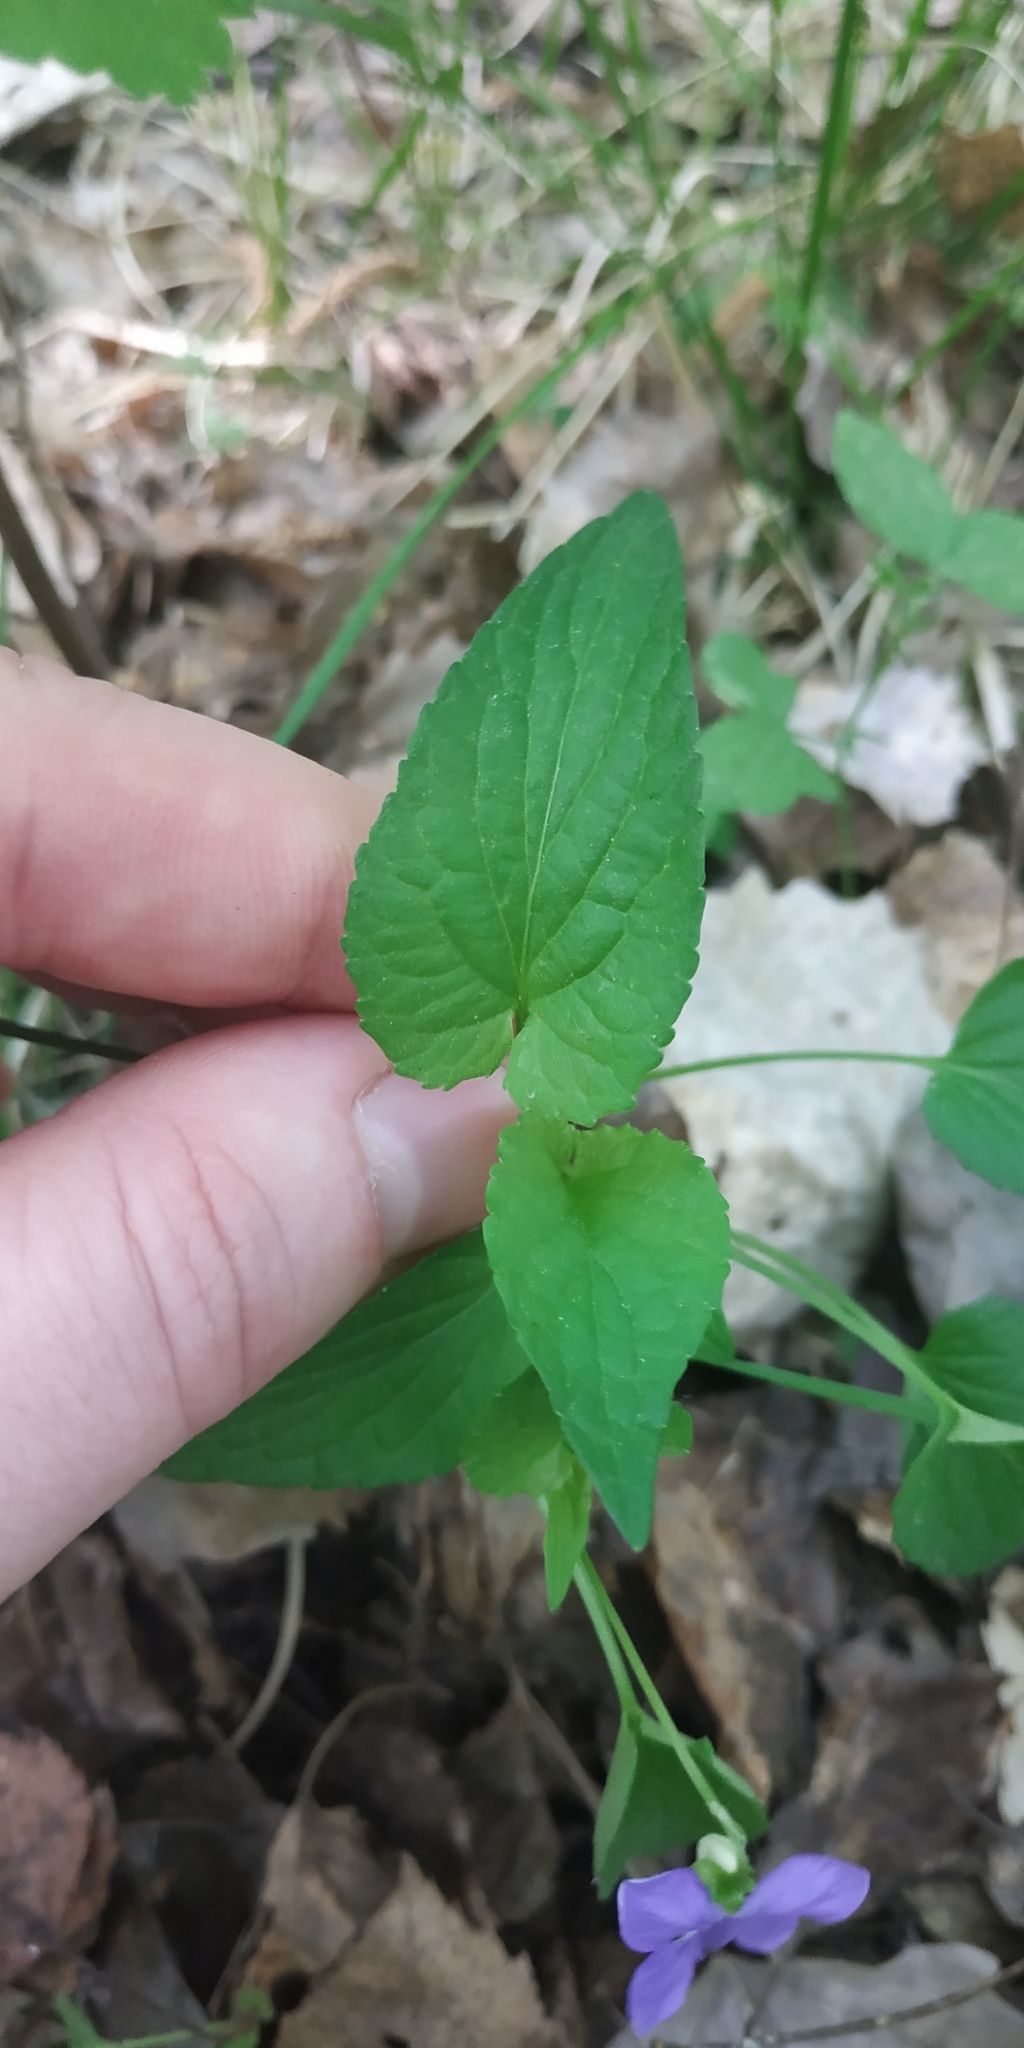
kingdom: Plantae
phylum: Tracheophyta
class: Magnoliopsida
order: Malpighiales
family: Violaceae
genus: Viola
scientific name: Viola
